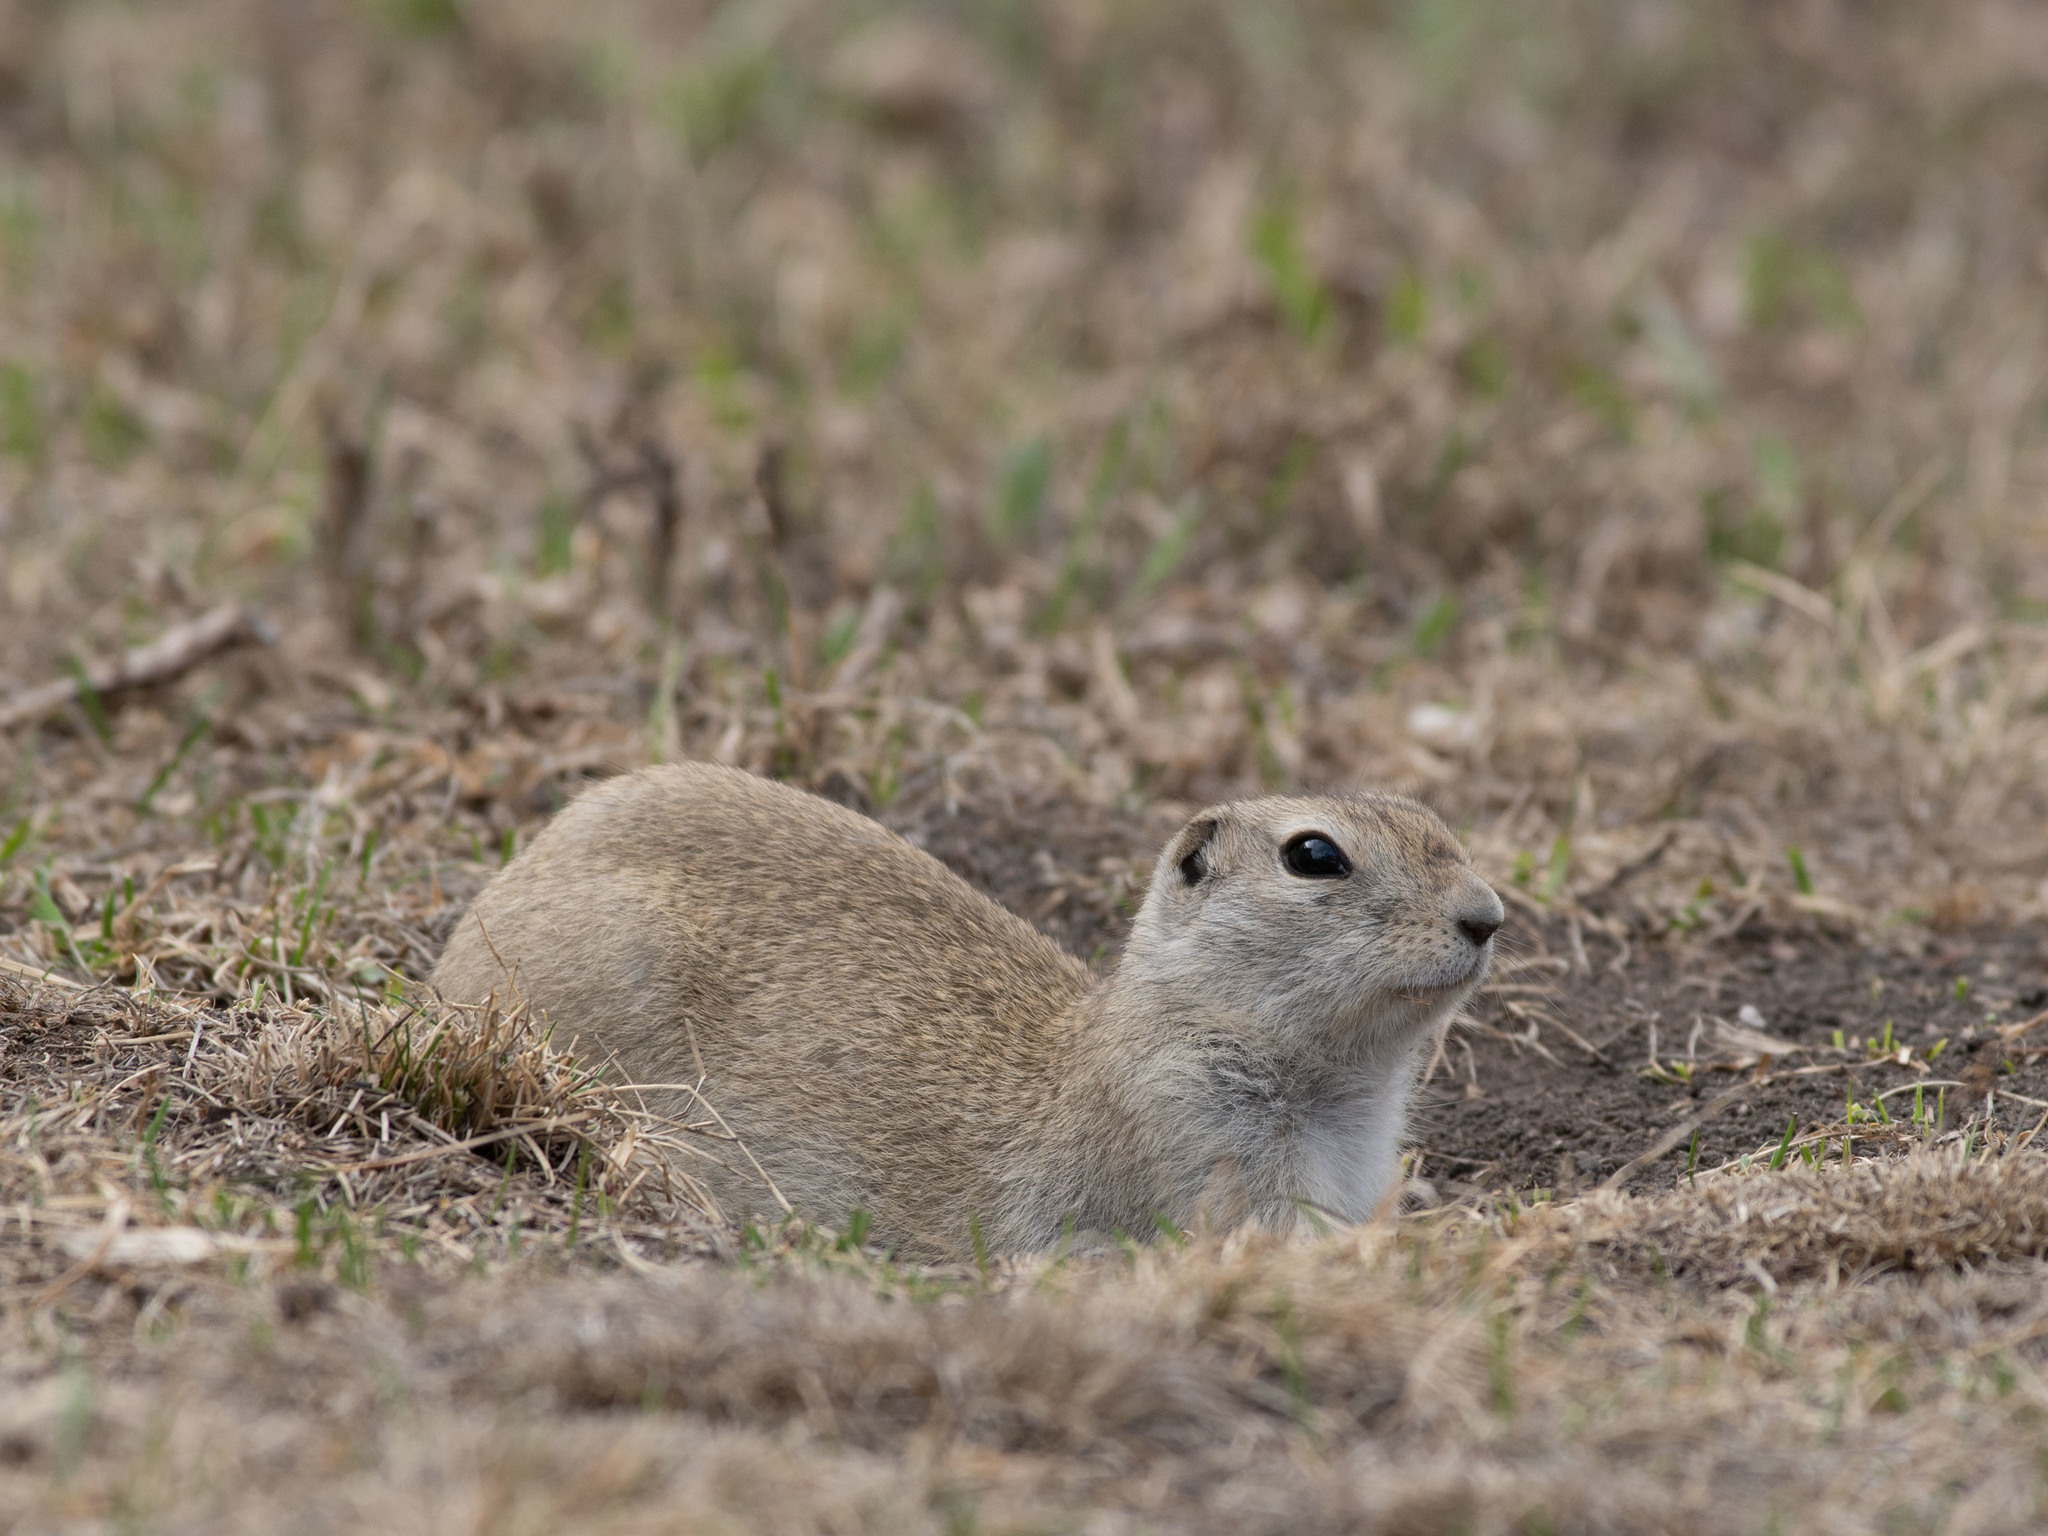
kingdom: Animalia
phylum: Chordata
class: Mammalia
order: Rodentia
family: Sciuridae
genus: Urocitellus
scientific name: Urocitellus richardsonii
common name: Richardson's ground squirrel
